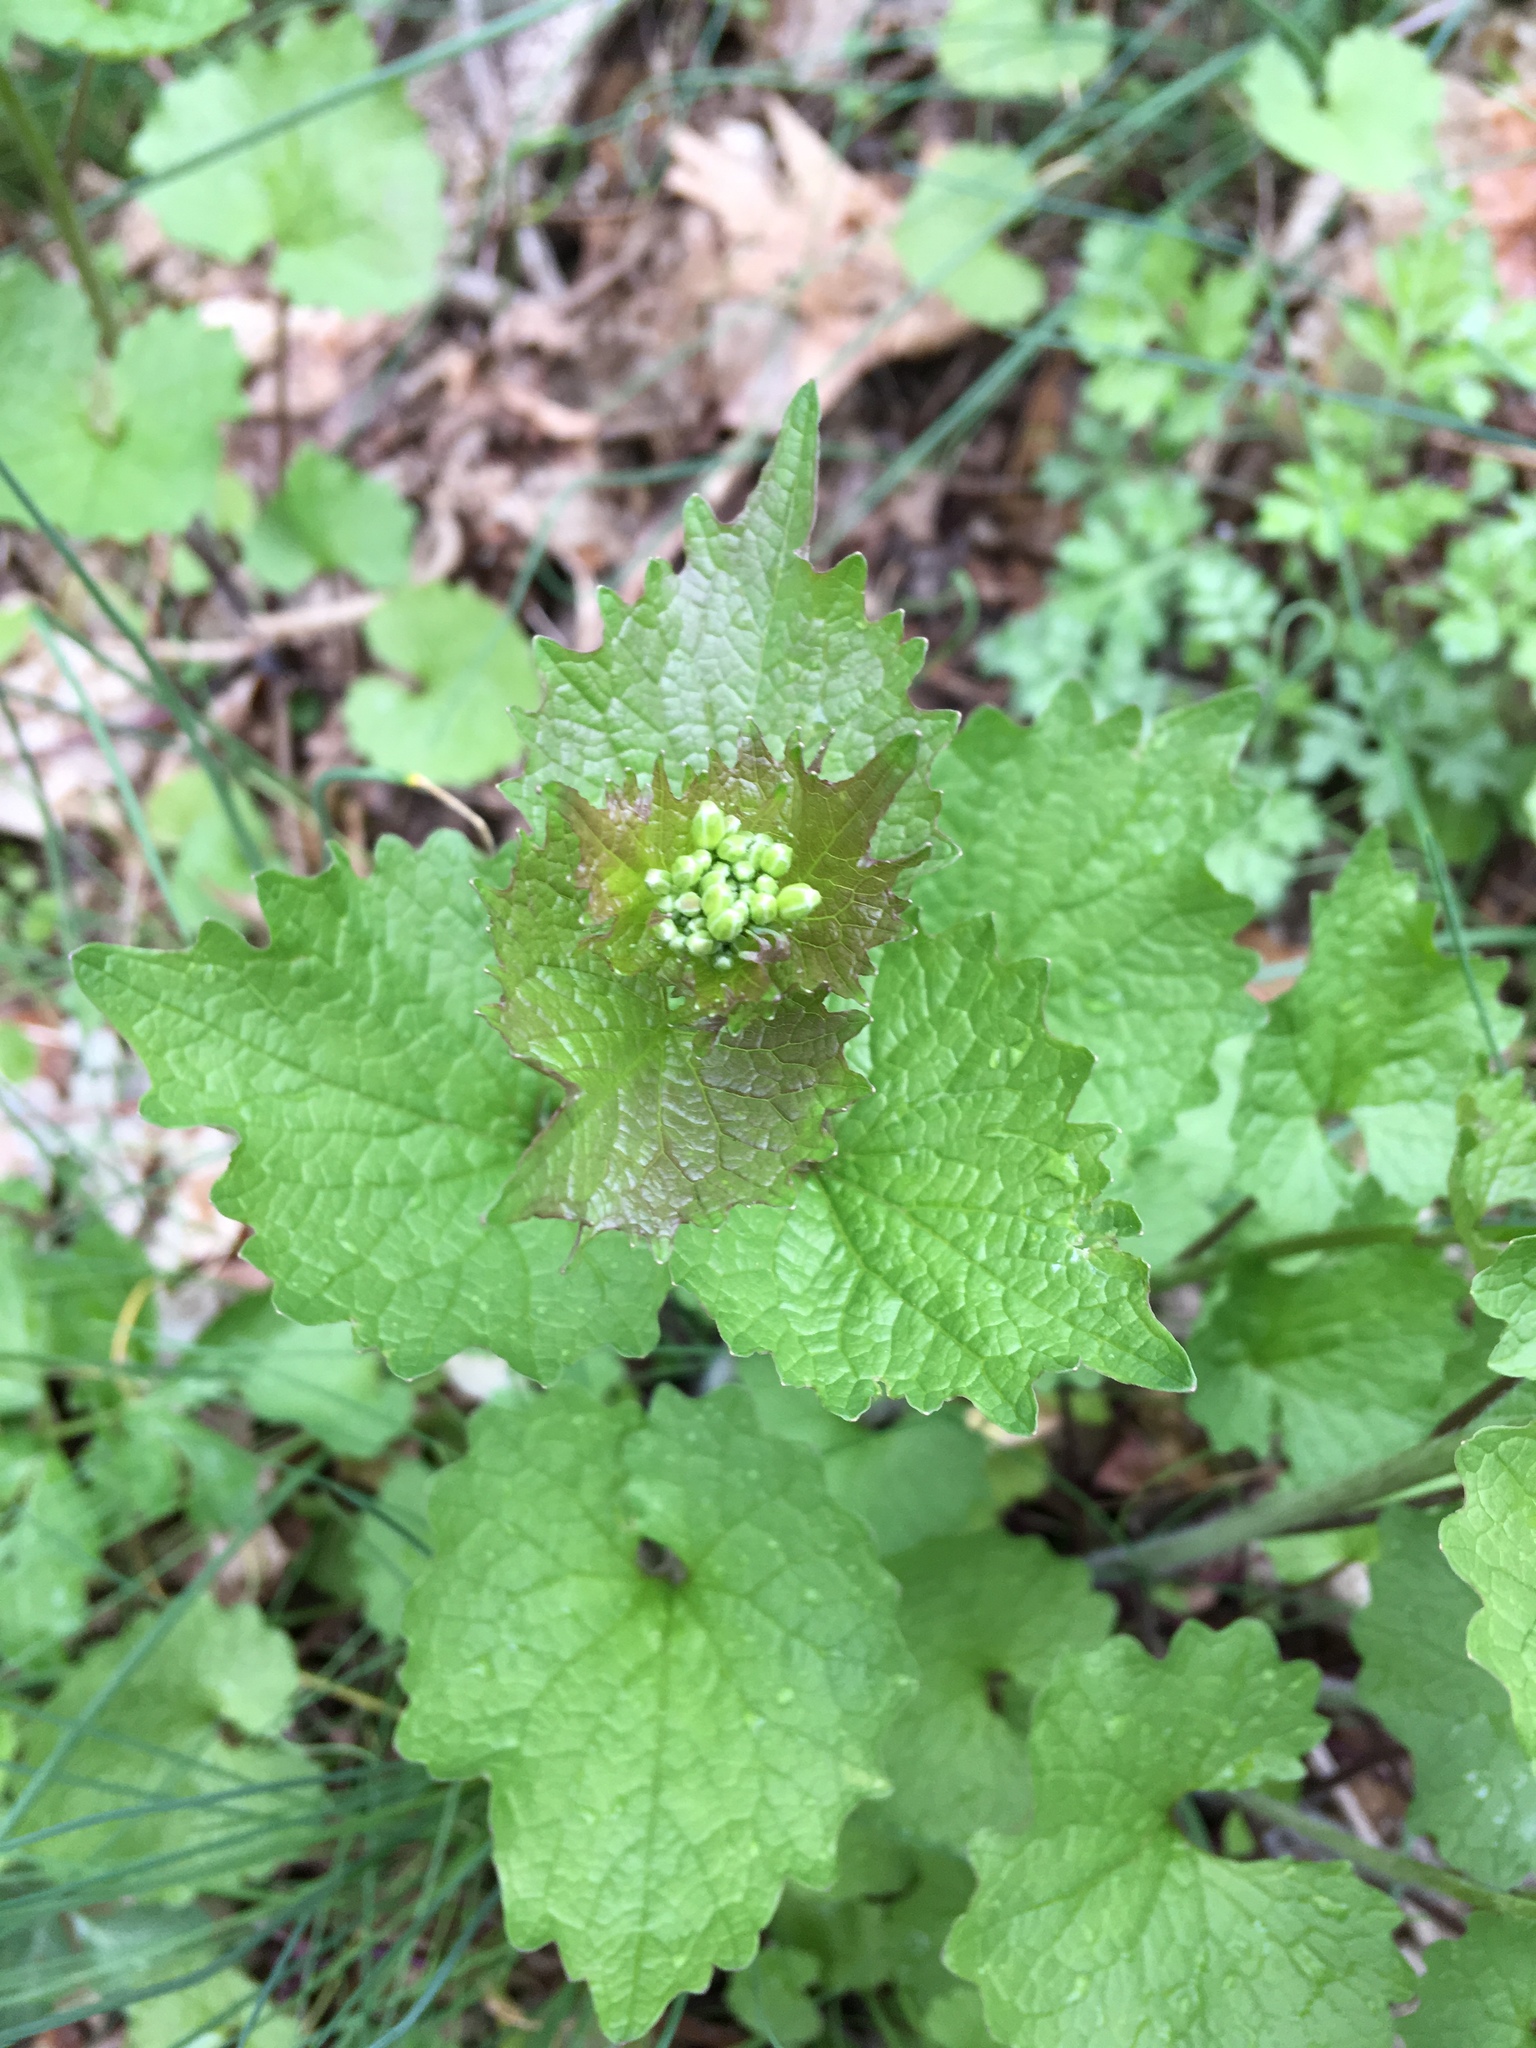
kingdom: Plantae
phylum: Tracheophyta
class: Magnoliopsida
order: Brassicales
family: Brassicaceae
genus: Alliaria
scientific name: Alliaria petiolata
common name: Garlic mustard
